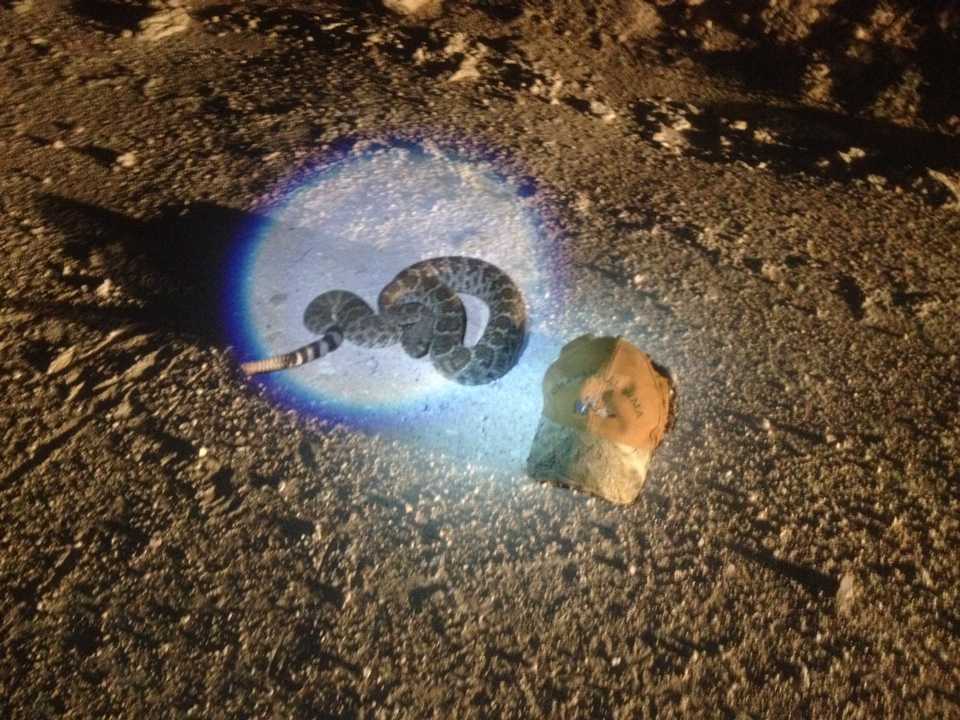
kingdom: Animalia
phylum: Chordata
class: Squamata
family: Viperidae
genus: Crotalus
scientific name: Crotalus atrox
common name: Western diamond-backed rattlesnake
